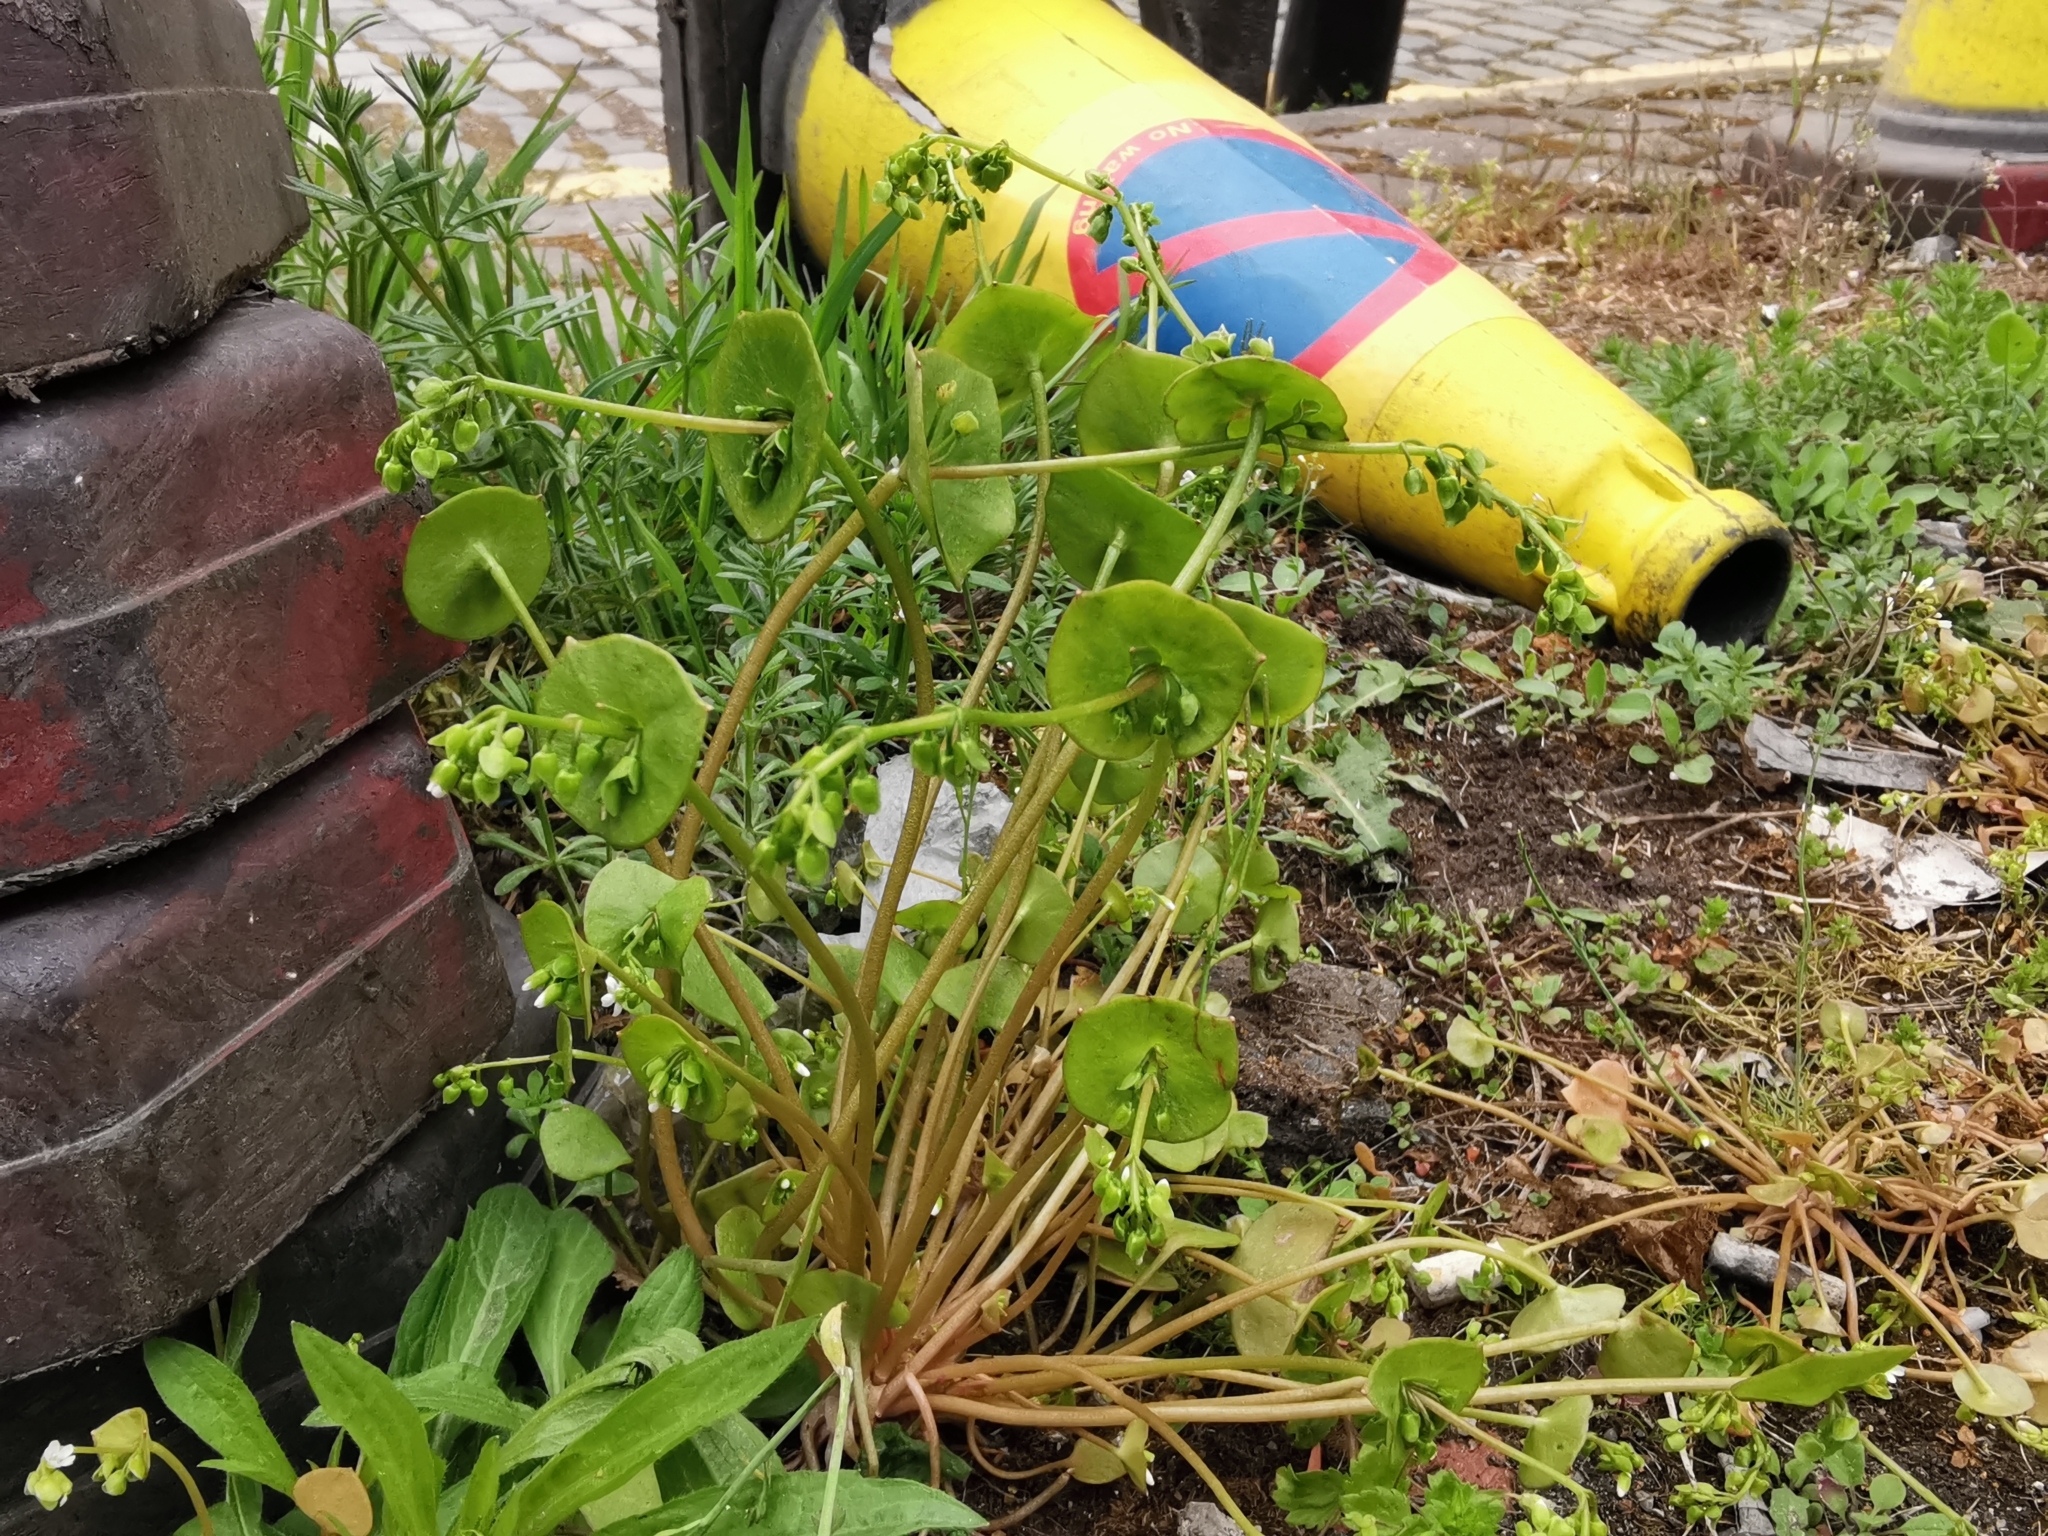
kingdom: Plantae
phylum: Tracheophyta
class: Magnoliopsida
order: Caryophyllales
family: Montiaceae
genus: Claytonia
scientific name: Claytonia perfoliata
